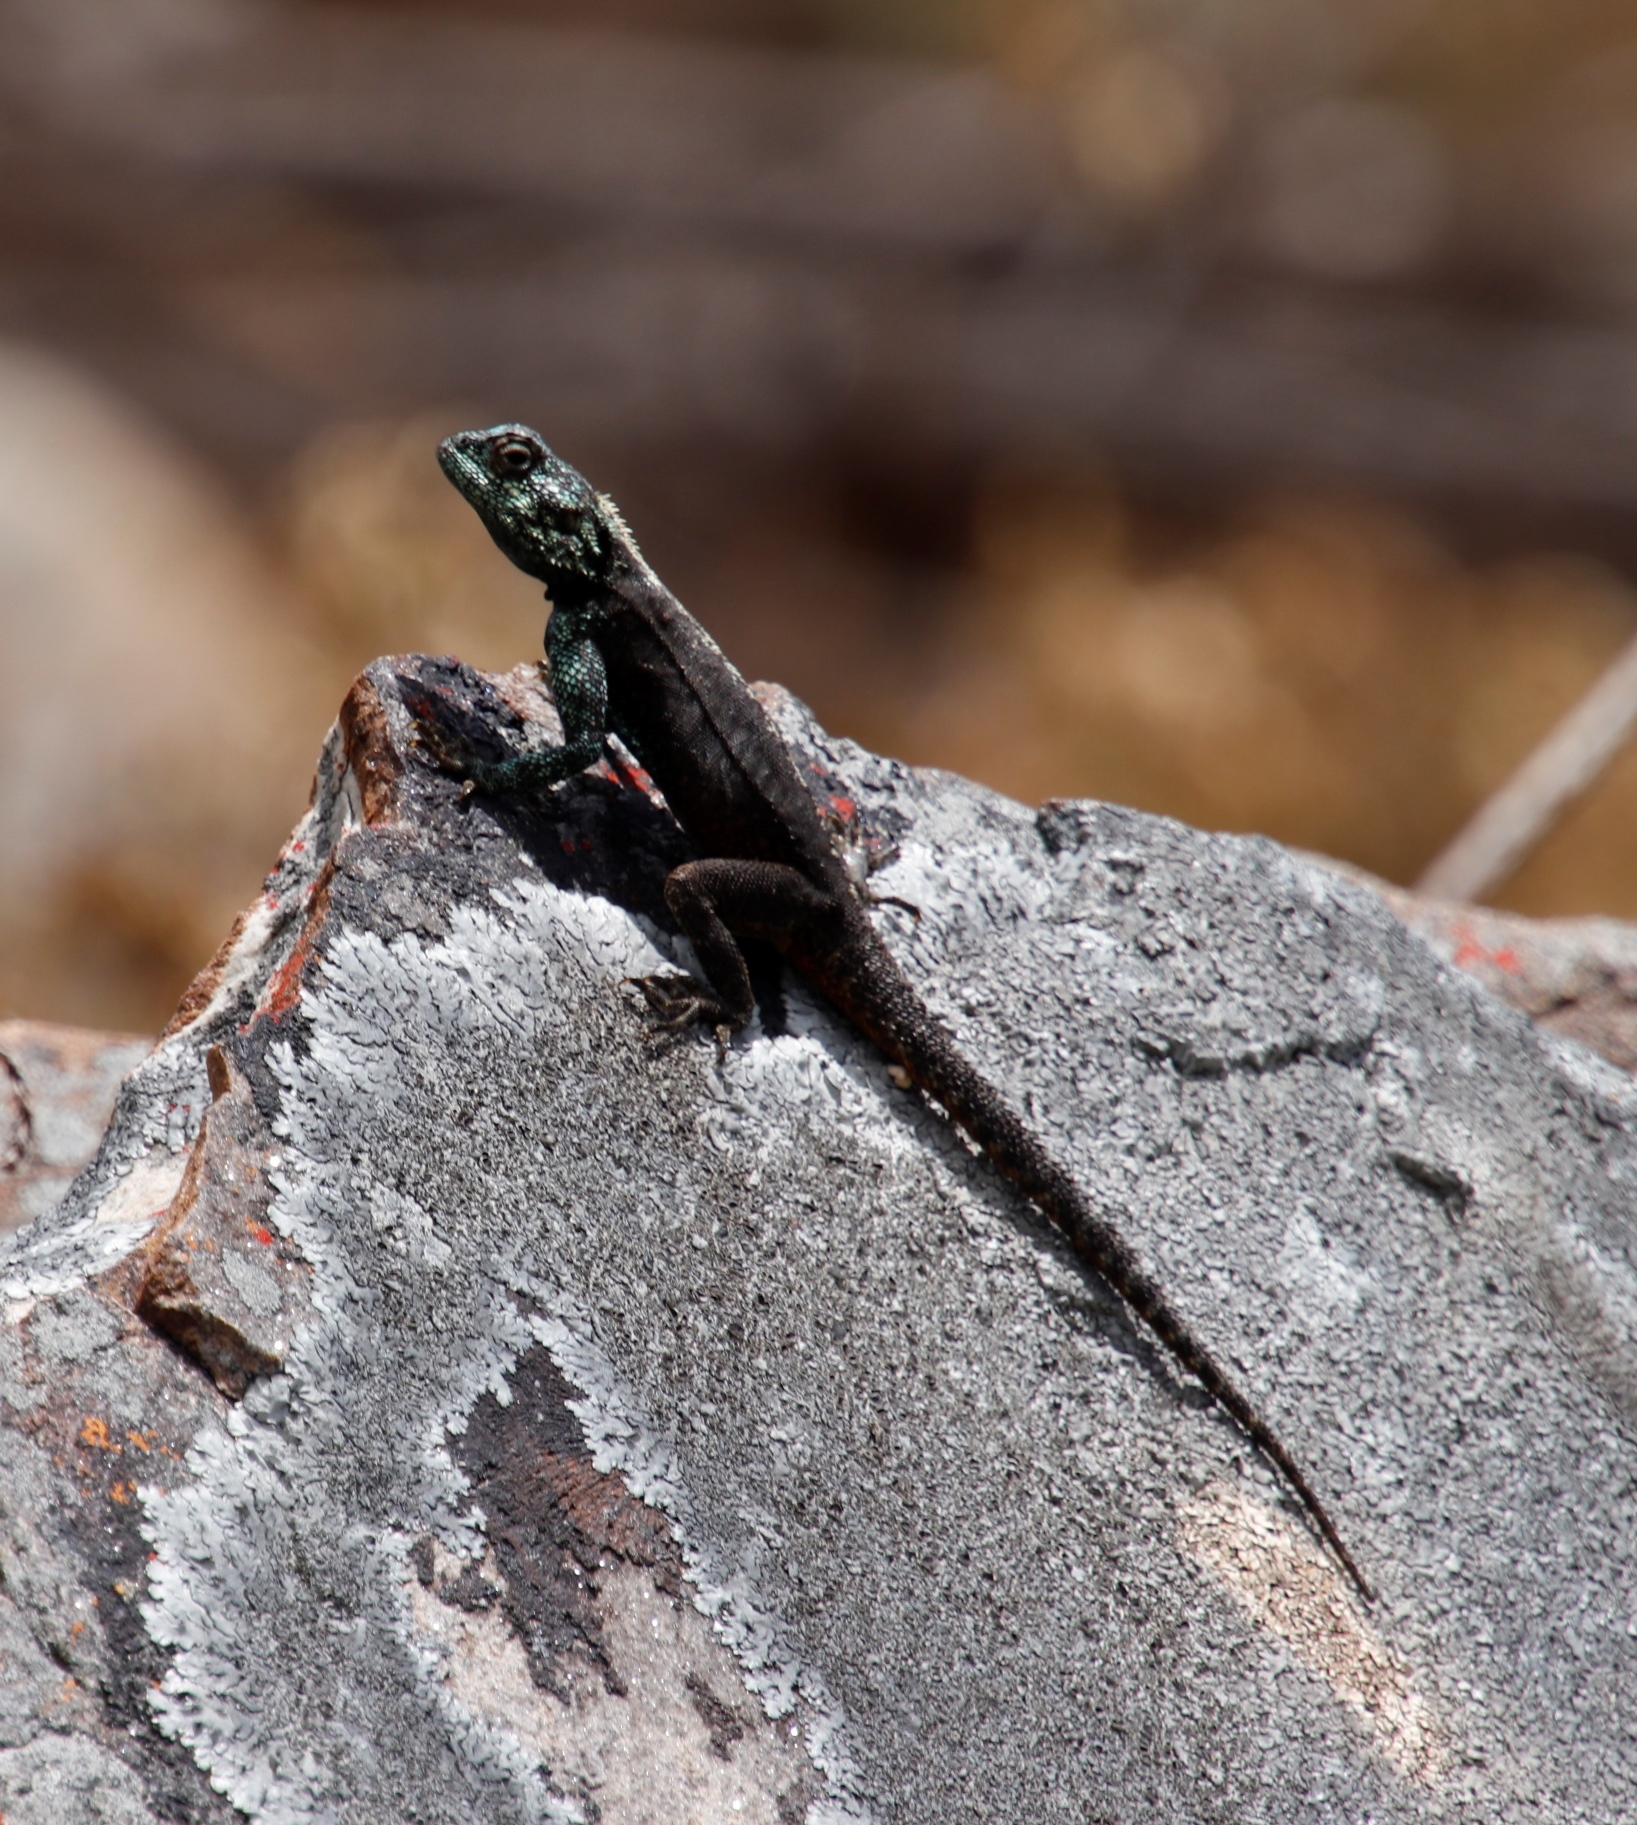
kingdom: Animalia
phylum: Chordata
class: Squamata
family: Agamidae
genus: Agama
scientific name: Agama atra
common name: Southern african rock agama
